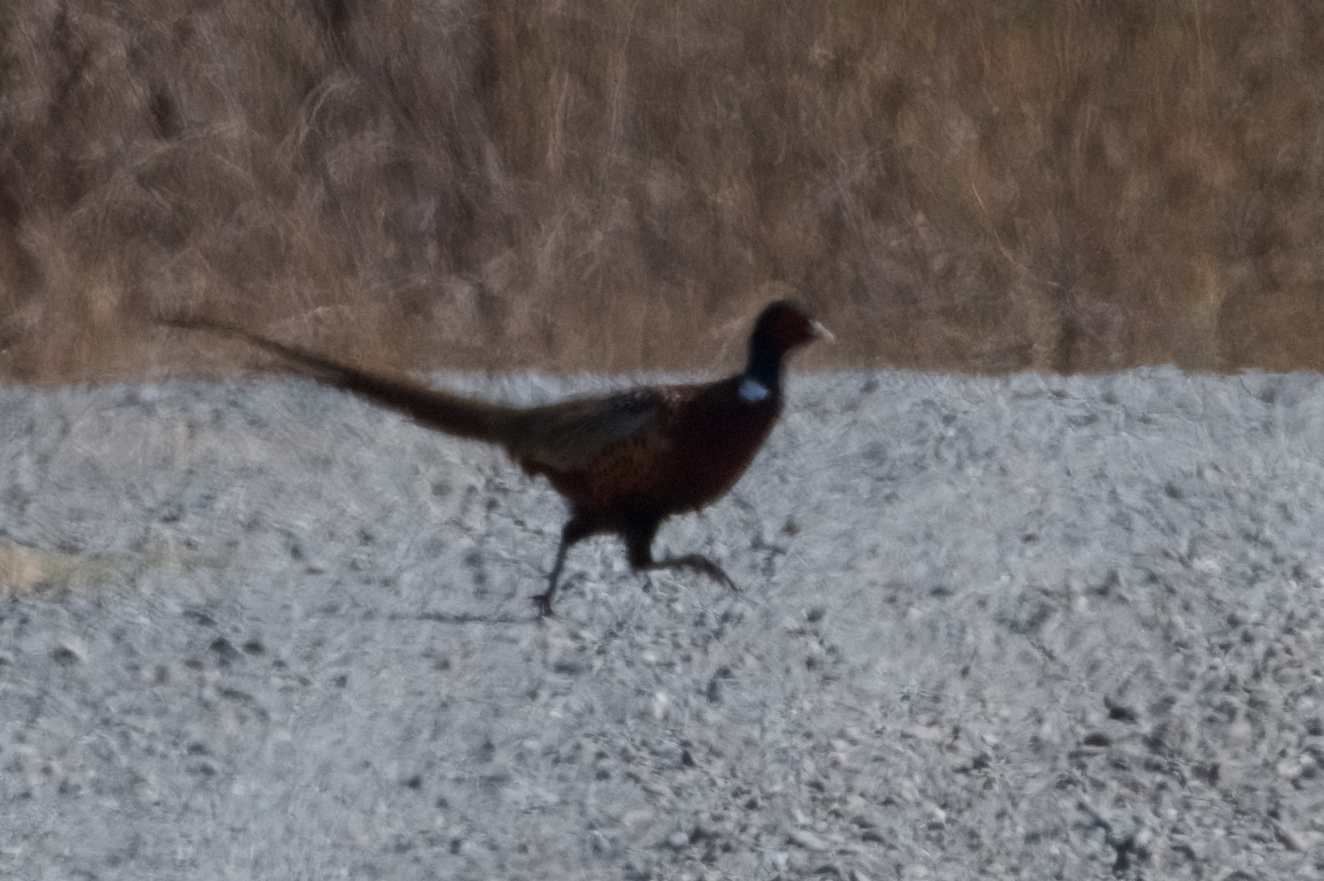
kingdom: Animalia
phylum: Chordata
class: Aves
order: Galliformes
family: Phasianidae
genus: Phasianus
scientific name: Phasianus colchicus
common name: Common pheasant
